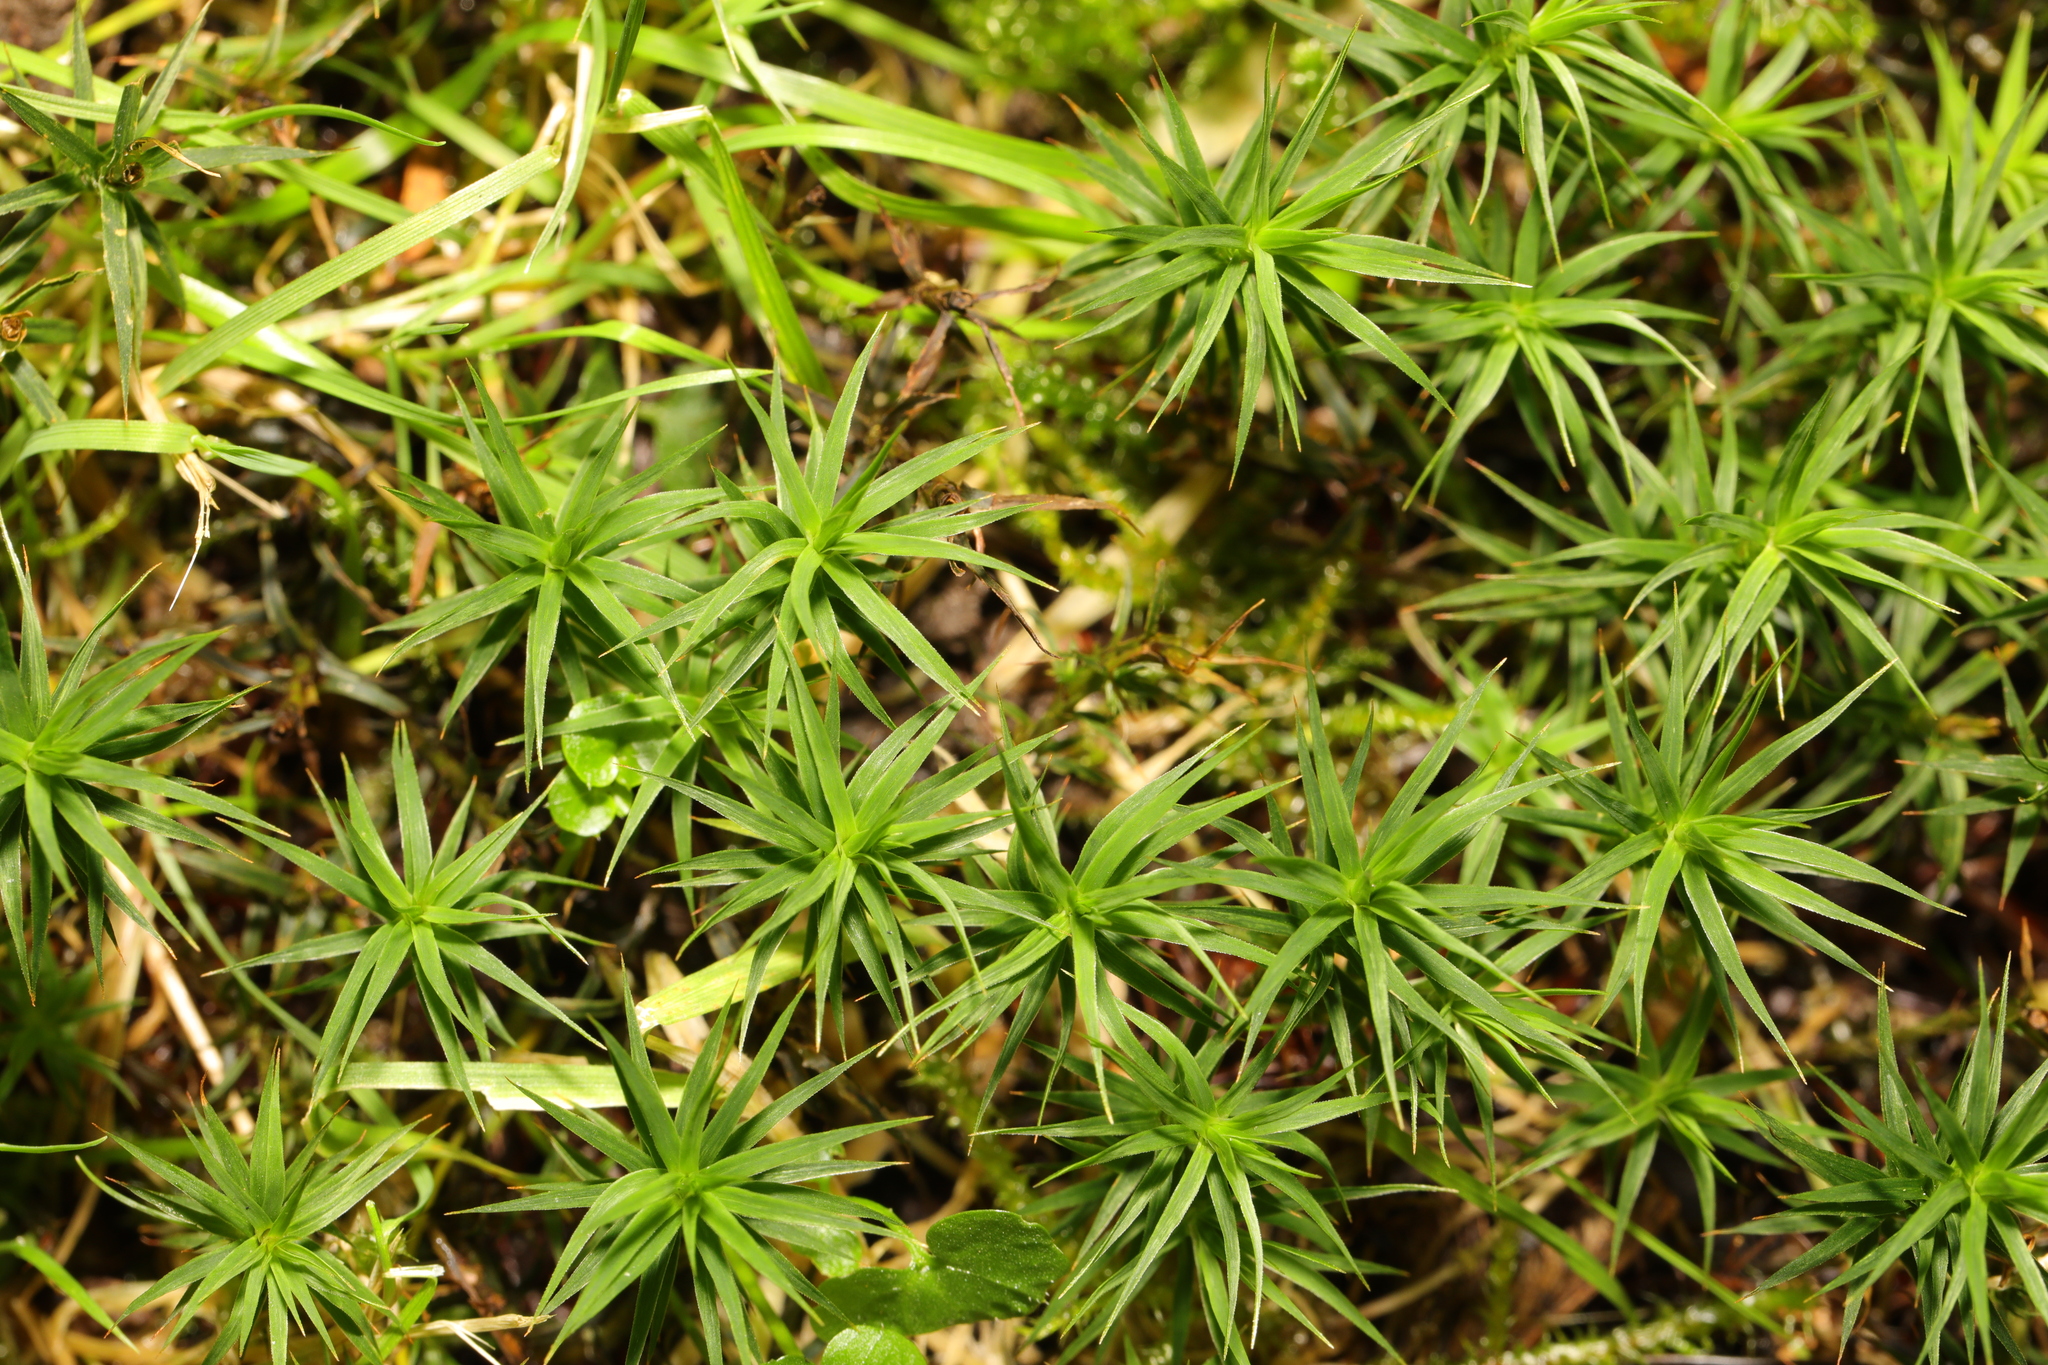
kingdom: Plantae
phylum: Bryophyta
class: Polytrichopsida
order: Polytrichales
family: Polytrichaceae
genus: Polytrichum
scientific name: Polytrichum formosum
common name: Bank haircap moss
